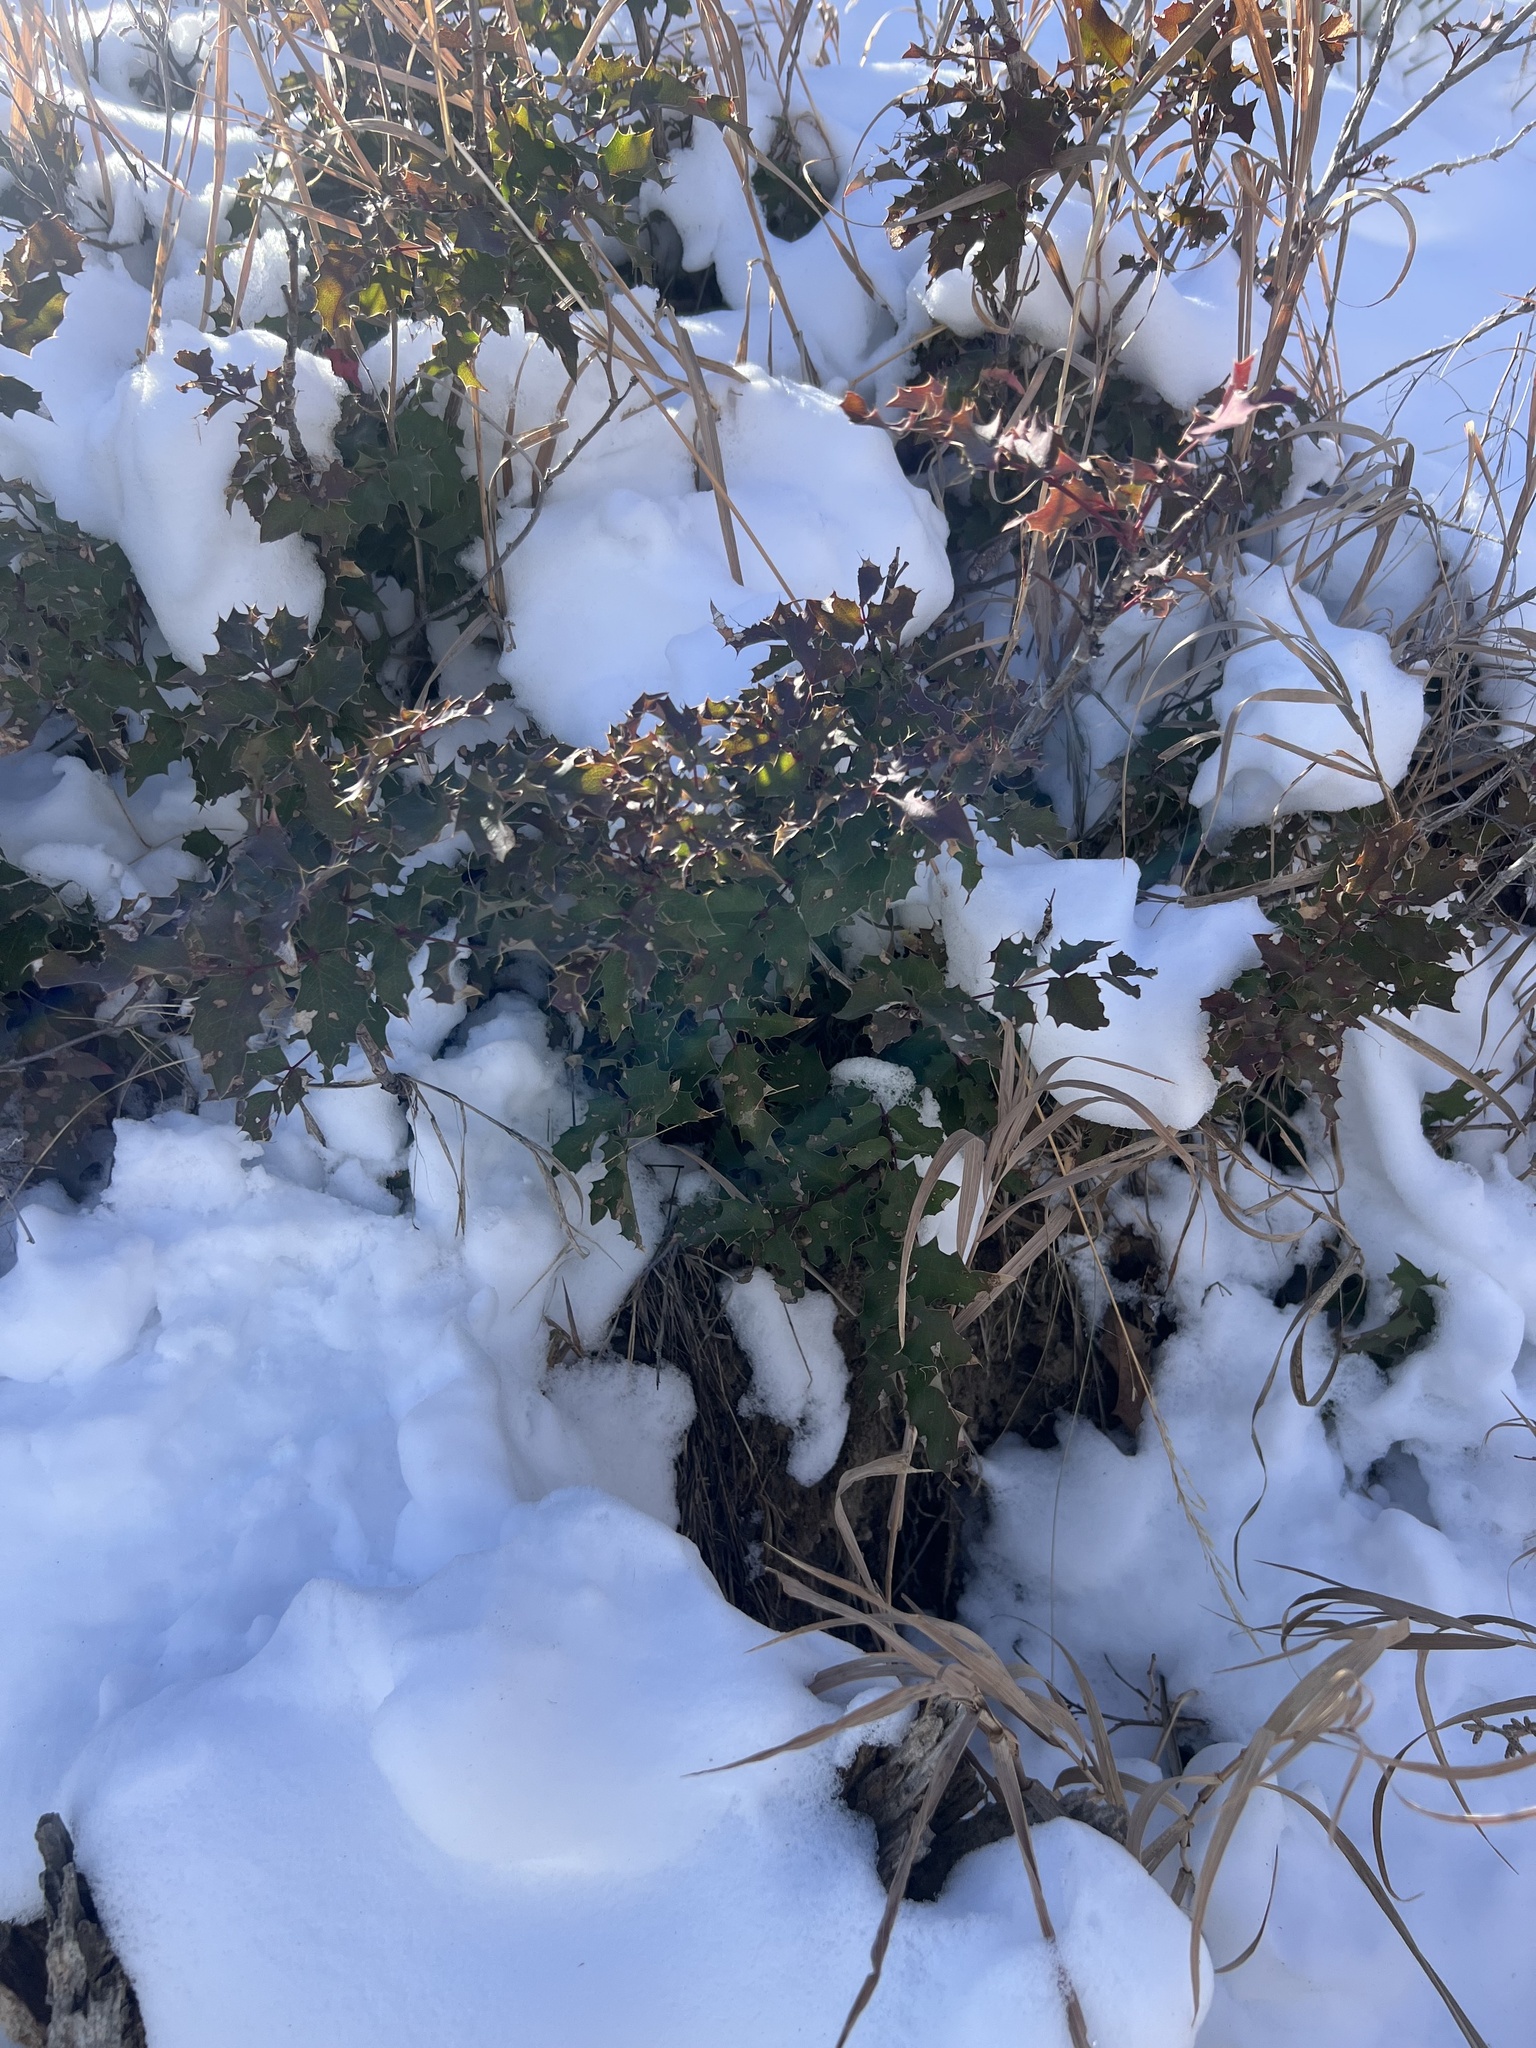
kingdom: Plantae
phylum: Tracheophyta
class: Magnoliopsida
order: Ranunculales
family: Berberidaceae
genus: Mahonia
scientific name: Mahonia aquifolium
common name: Oregon-grape
